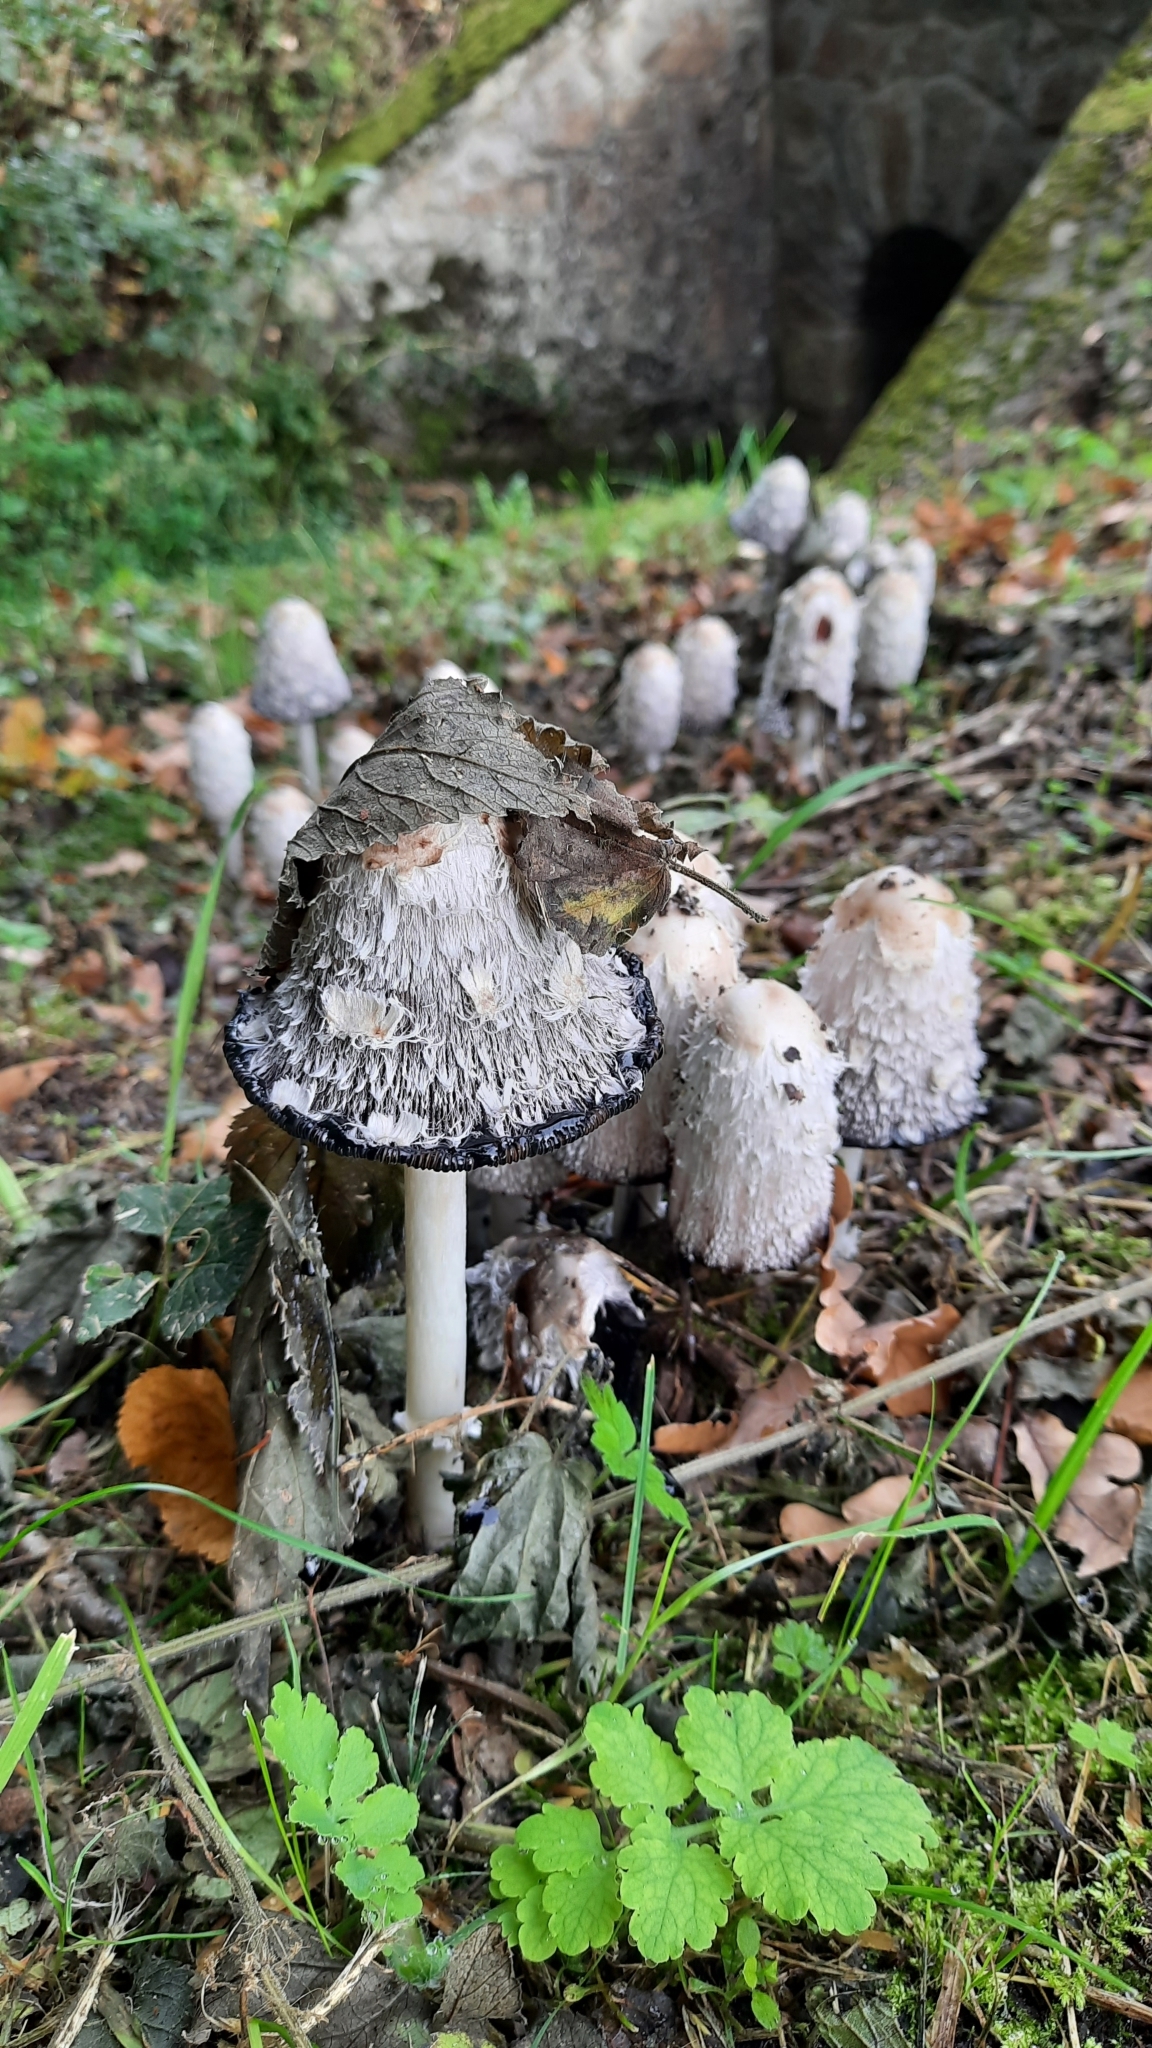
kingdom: Fungi
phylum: Basidiomycota
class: Agaricomycetes
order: Agaricales
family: Agaricaceae
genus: Coprinus
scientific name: Coprinus comatus
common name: Lawyer's wig
